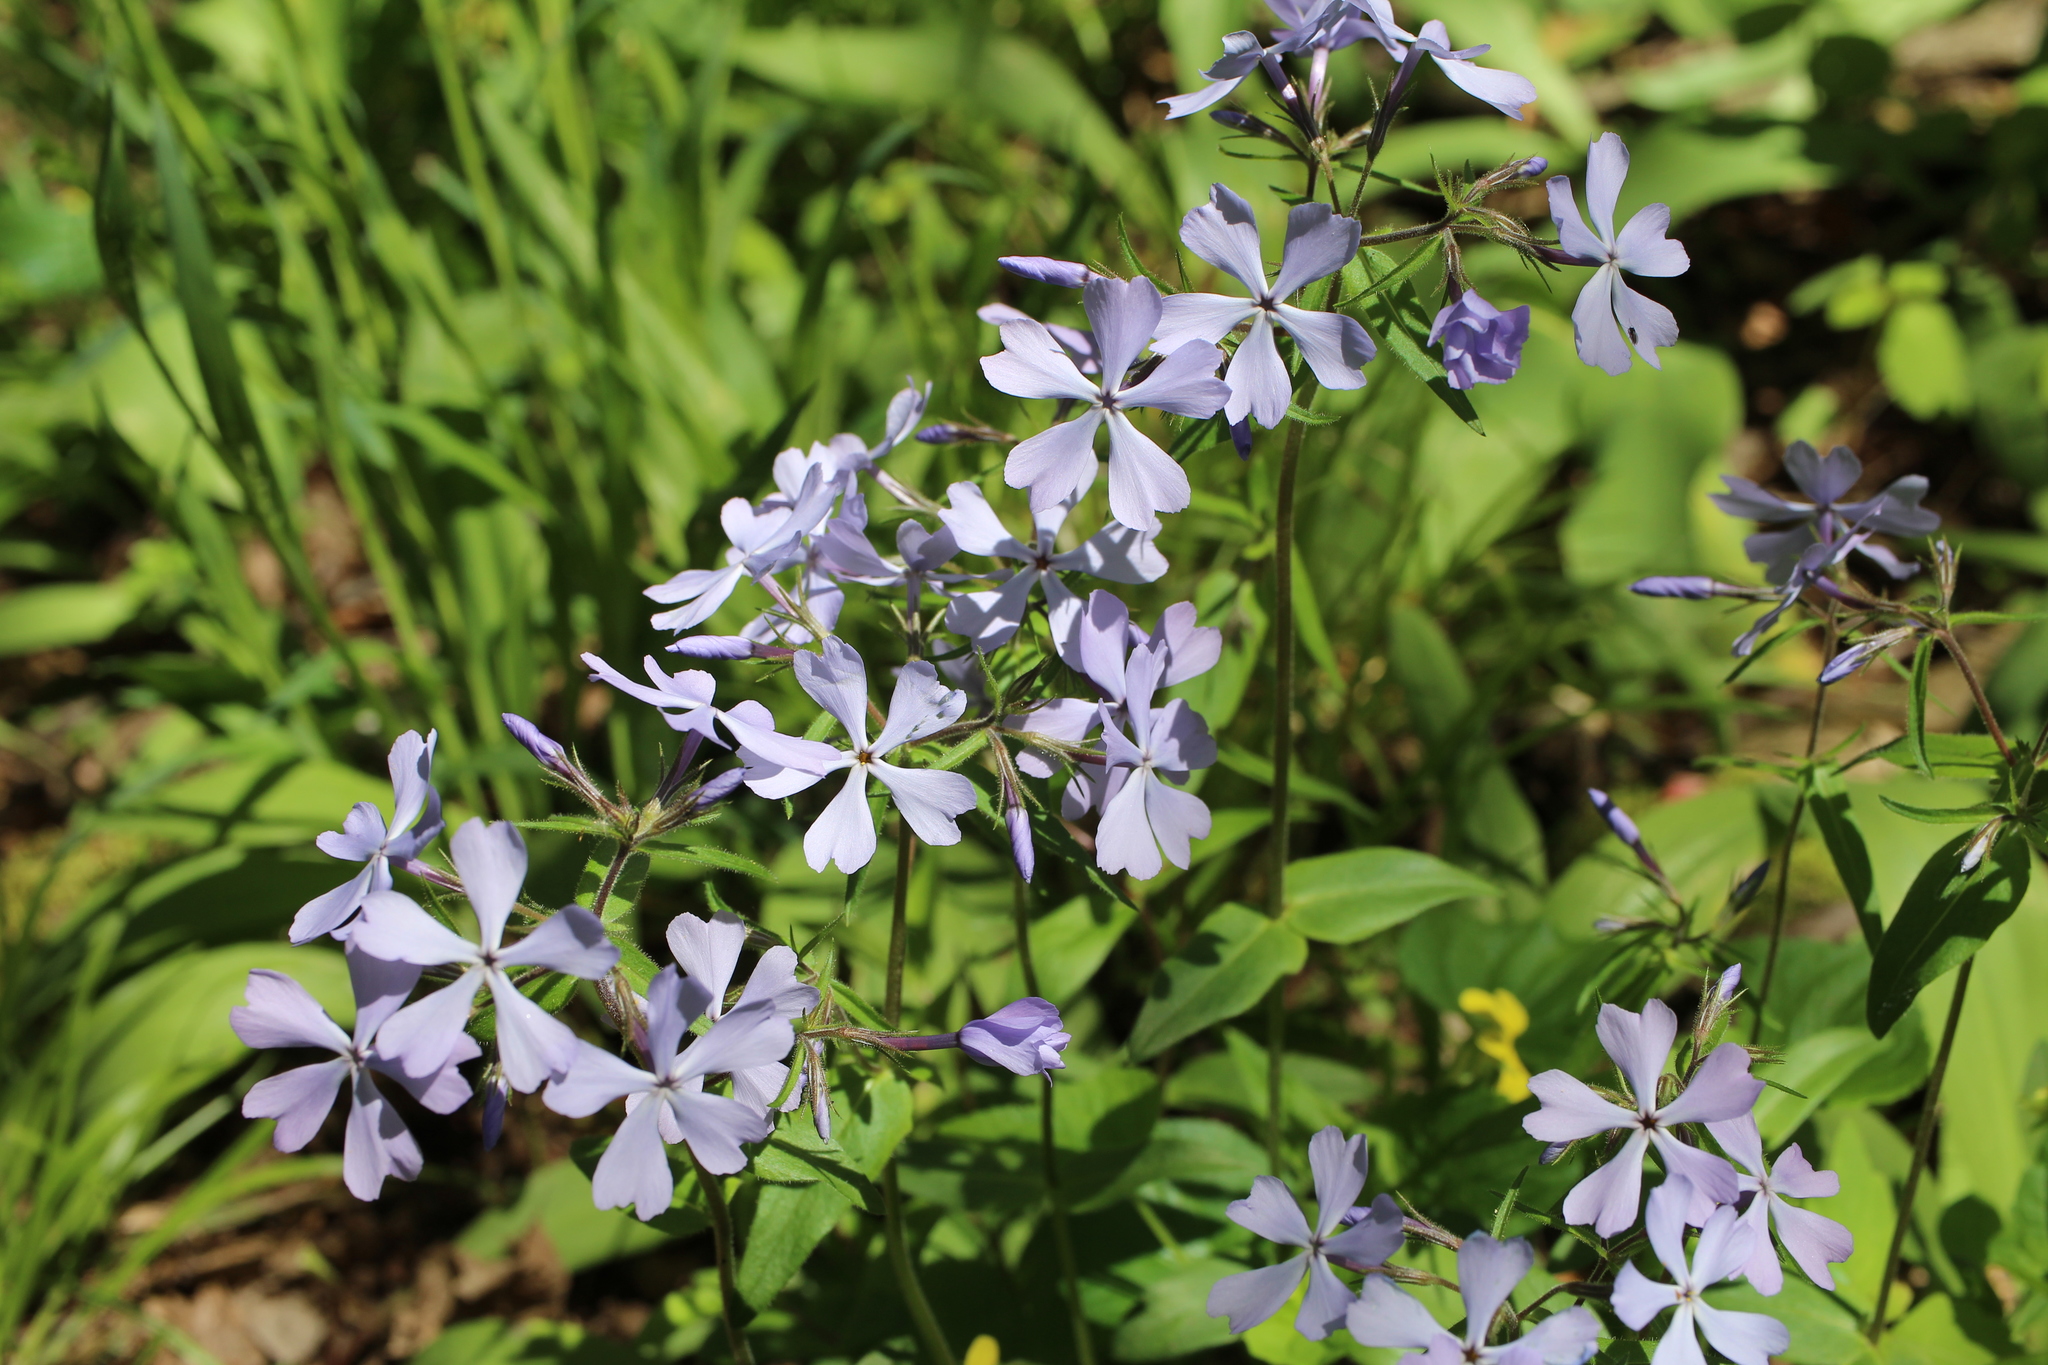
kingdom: Plantae
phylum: Tracheophyta
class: Magnoliopsida
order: Ericales
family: Polemoniaceae
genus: Phlox
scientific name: Phlox divaricata
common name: Blue phlox
